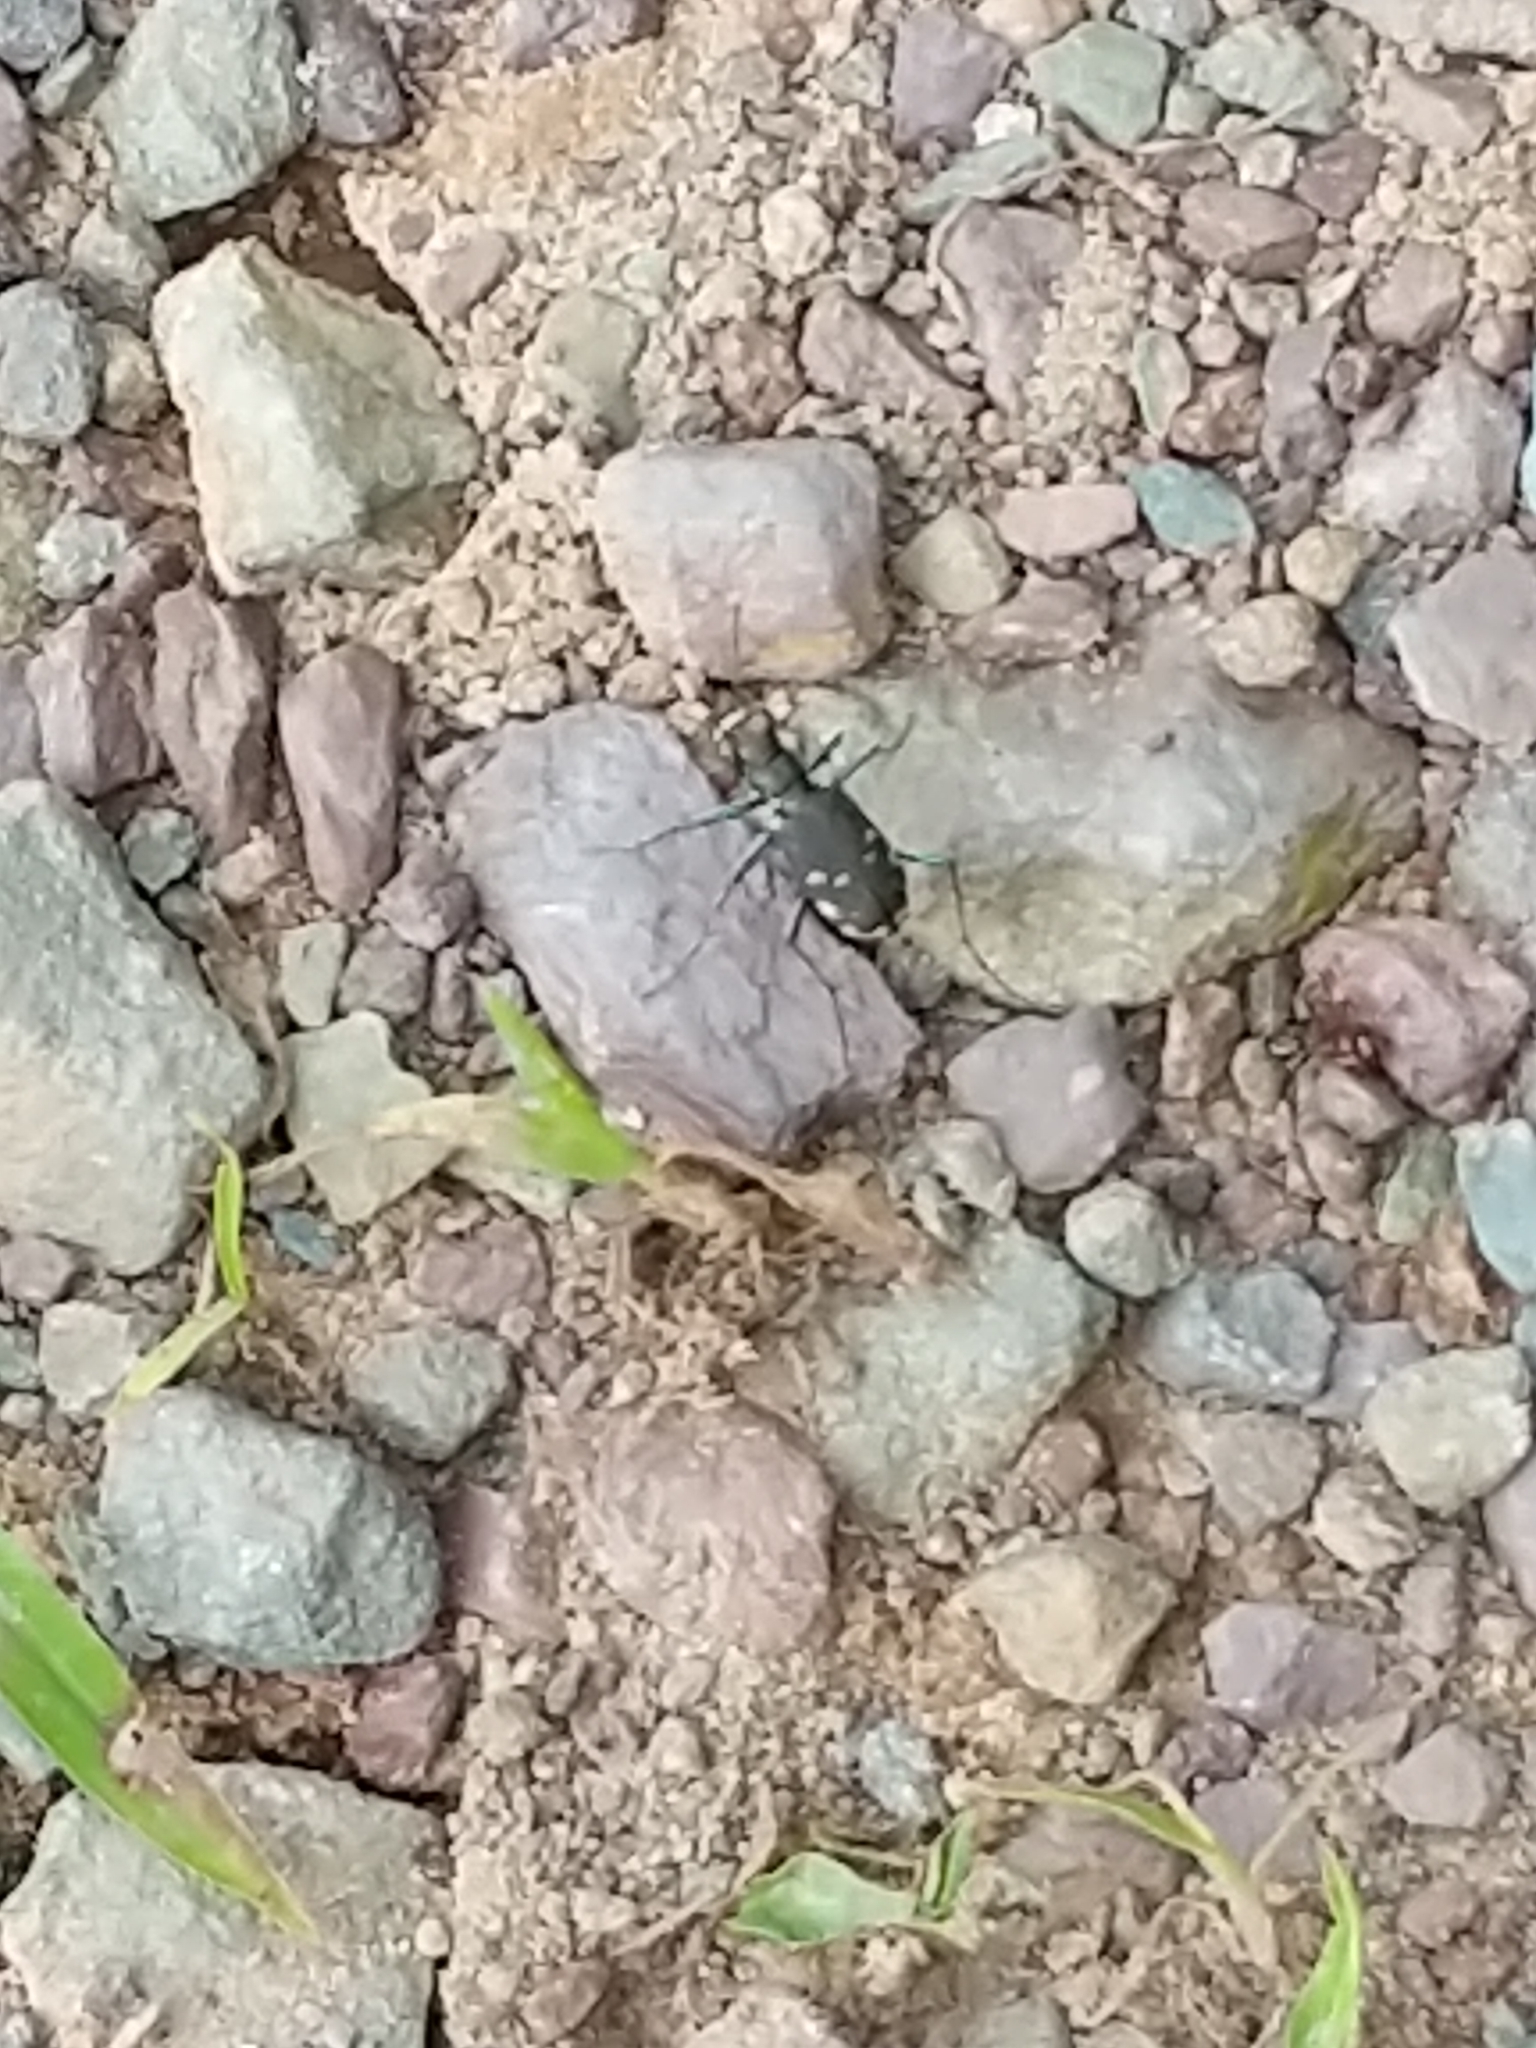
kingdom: Animalia
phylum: Arthropoda
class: Insecta
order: Coleoptera
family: Carabidae
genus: Cicindela
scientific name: Cicindela rufiventris
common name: Eastern red-bellied tiger beetle
